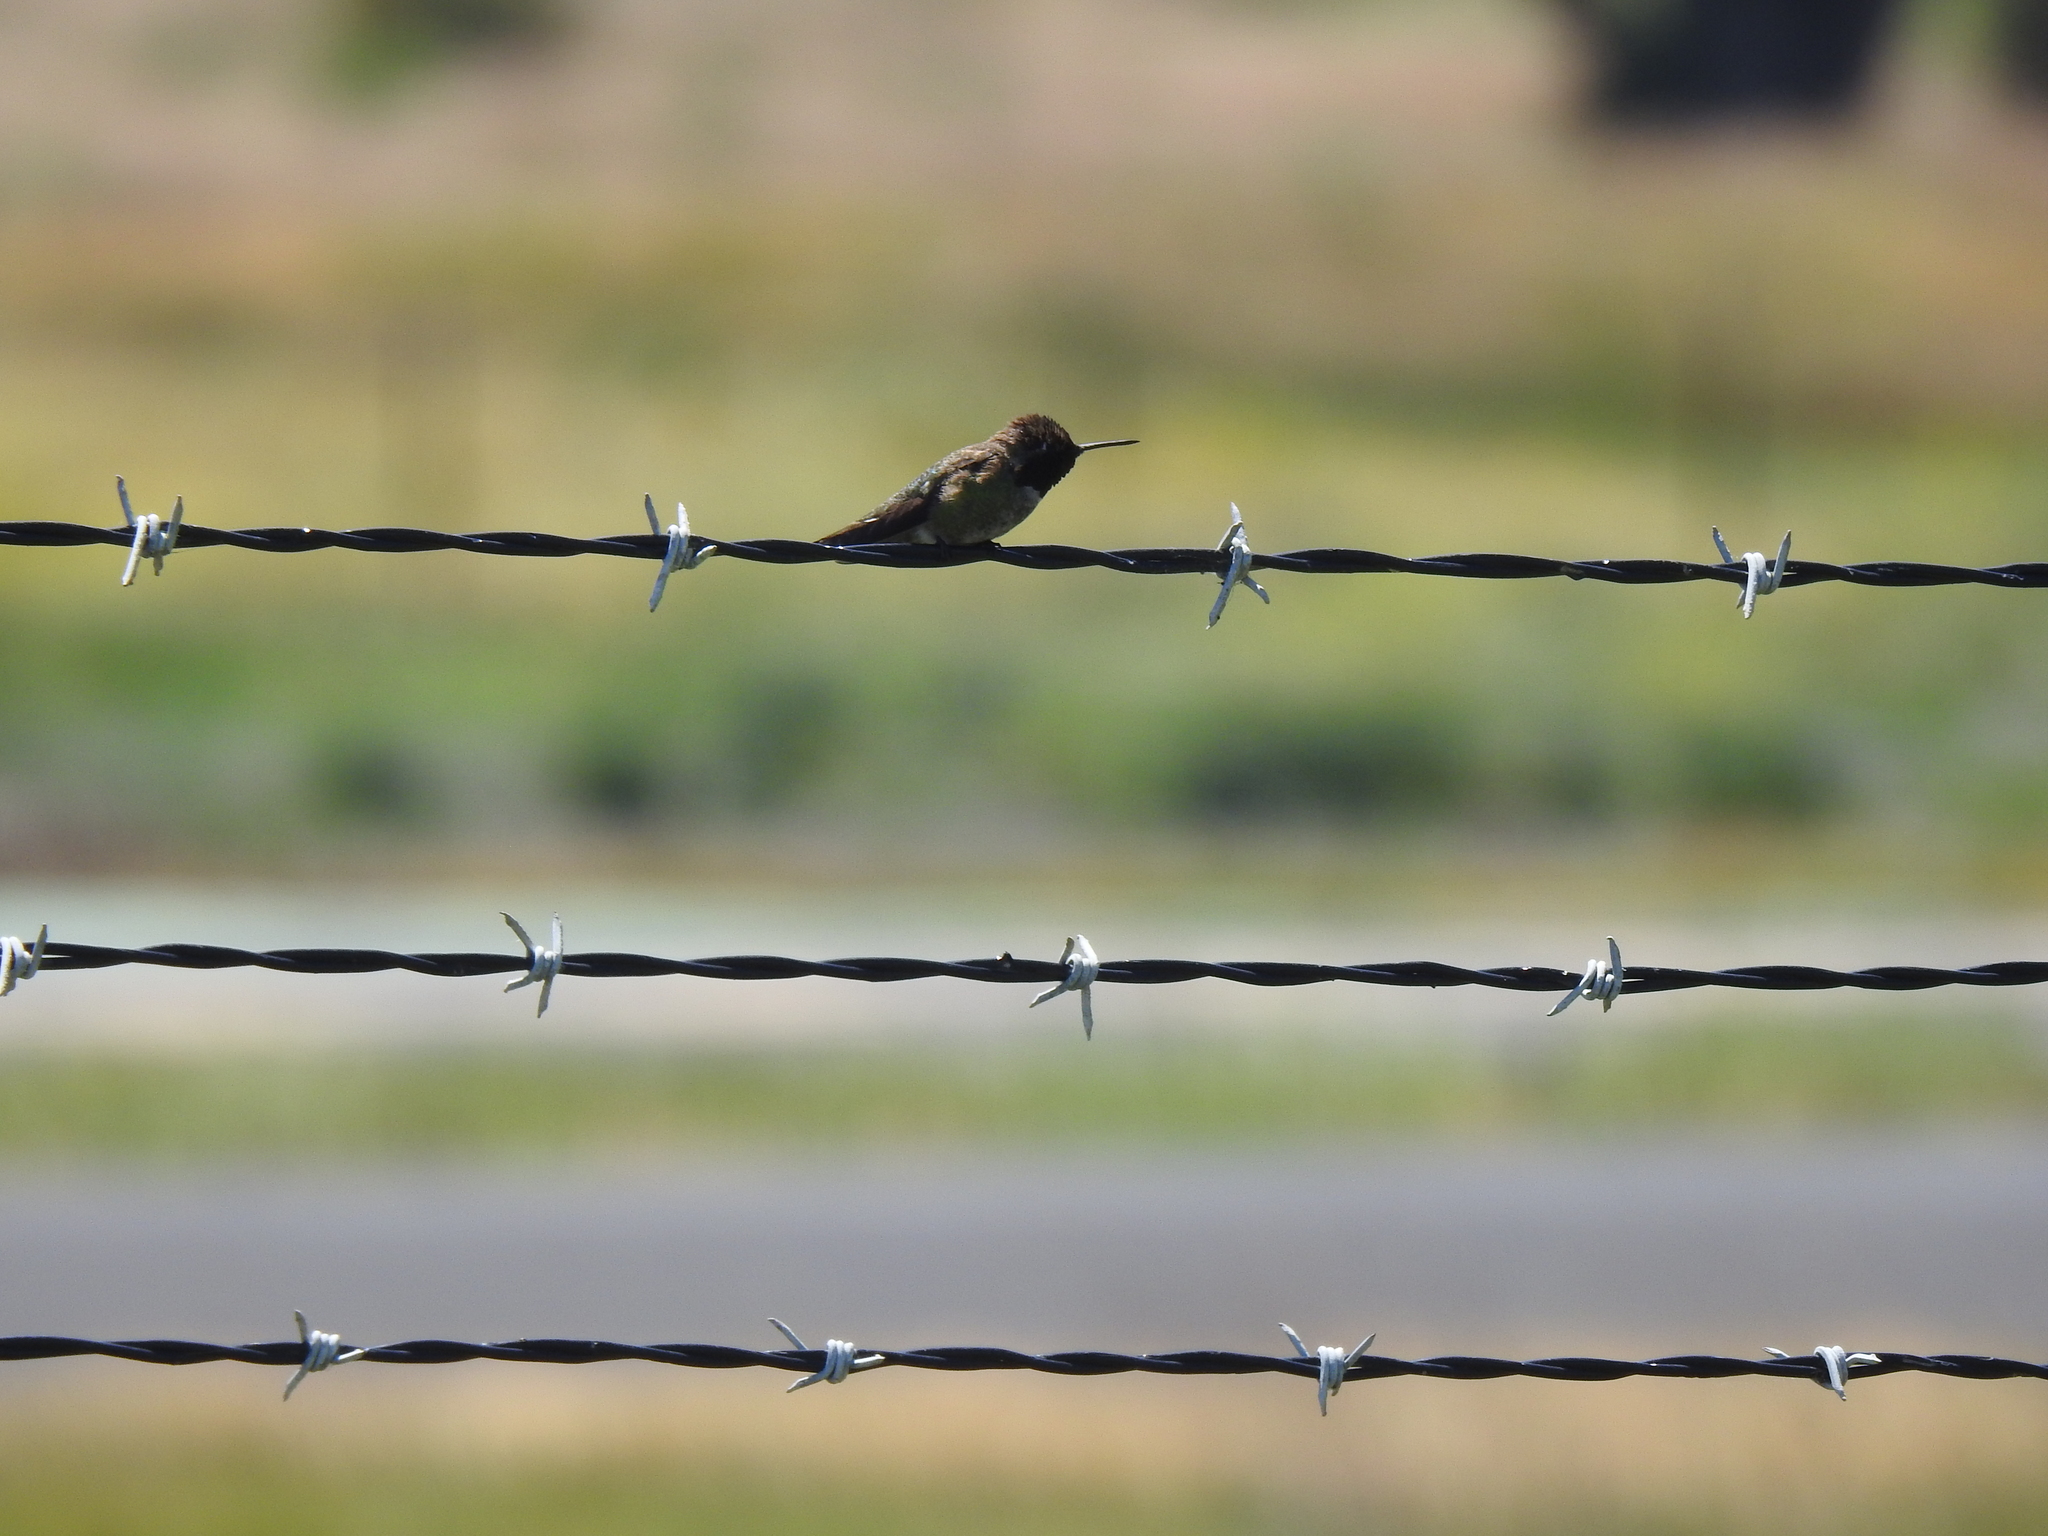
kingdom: Animalia
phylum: Chordata
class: Aves
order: Apodiformes
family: Trochilidae
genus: Calypte
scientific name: Calypte anna
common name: Anna's hummingbird
